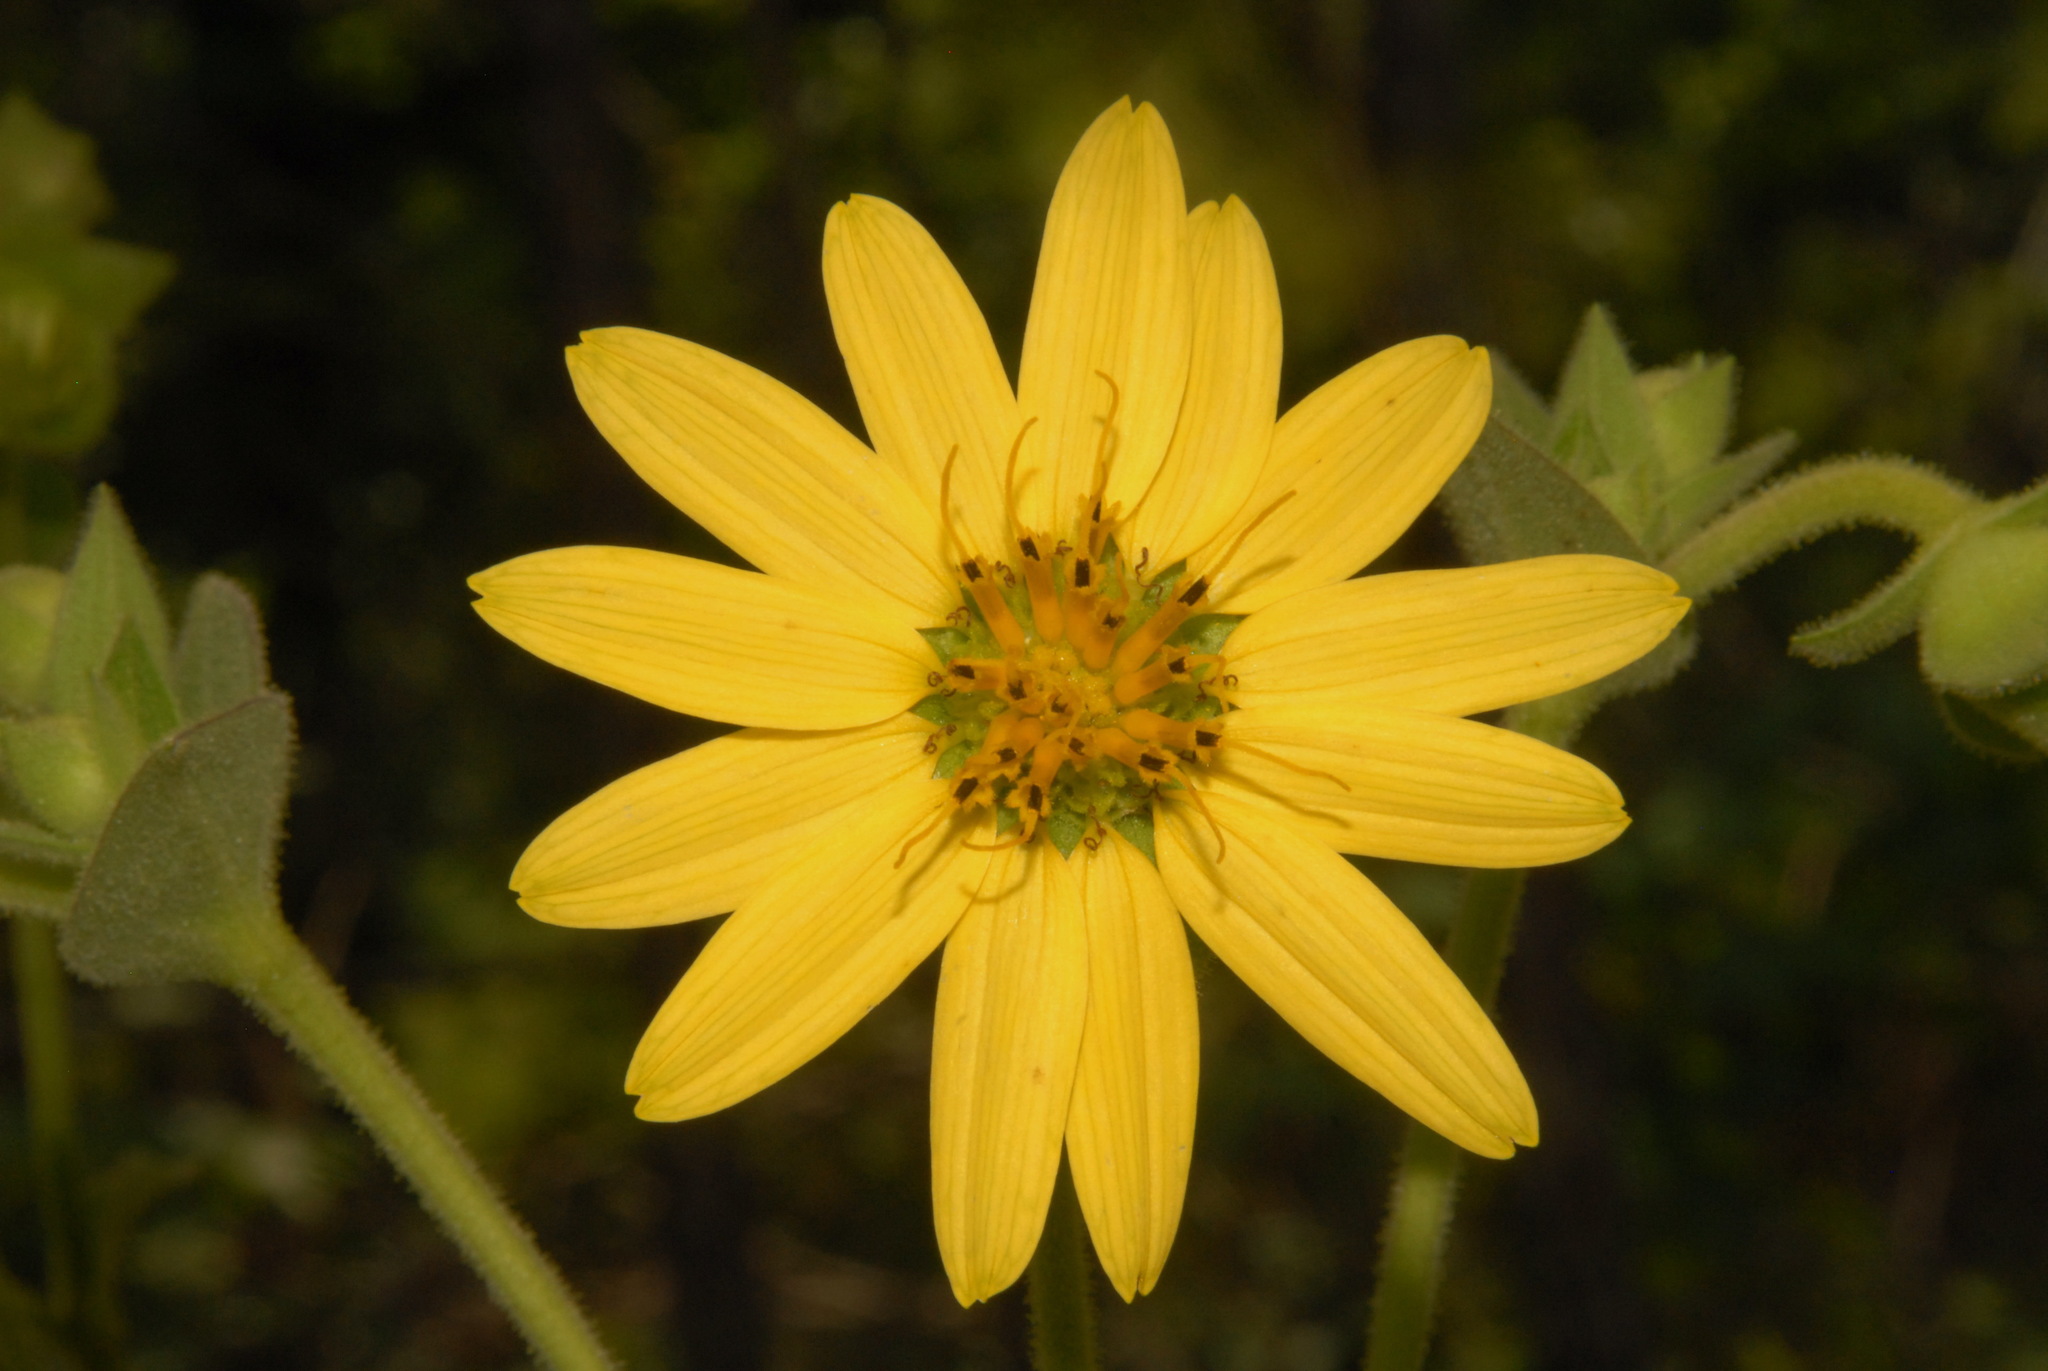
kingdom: Plantae
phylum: Tracheophyta
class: Magnoliopsida
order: Asterales
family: Asteraceae
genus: Silphium
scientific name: Silphium glutinosum
